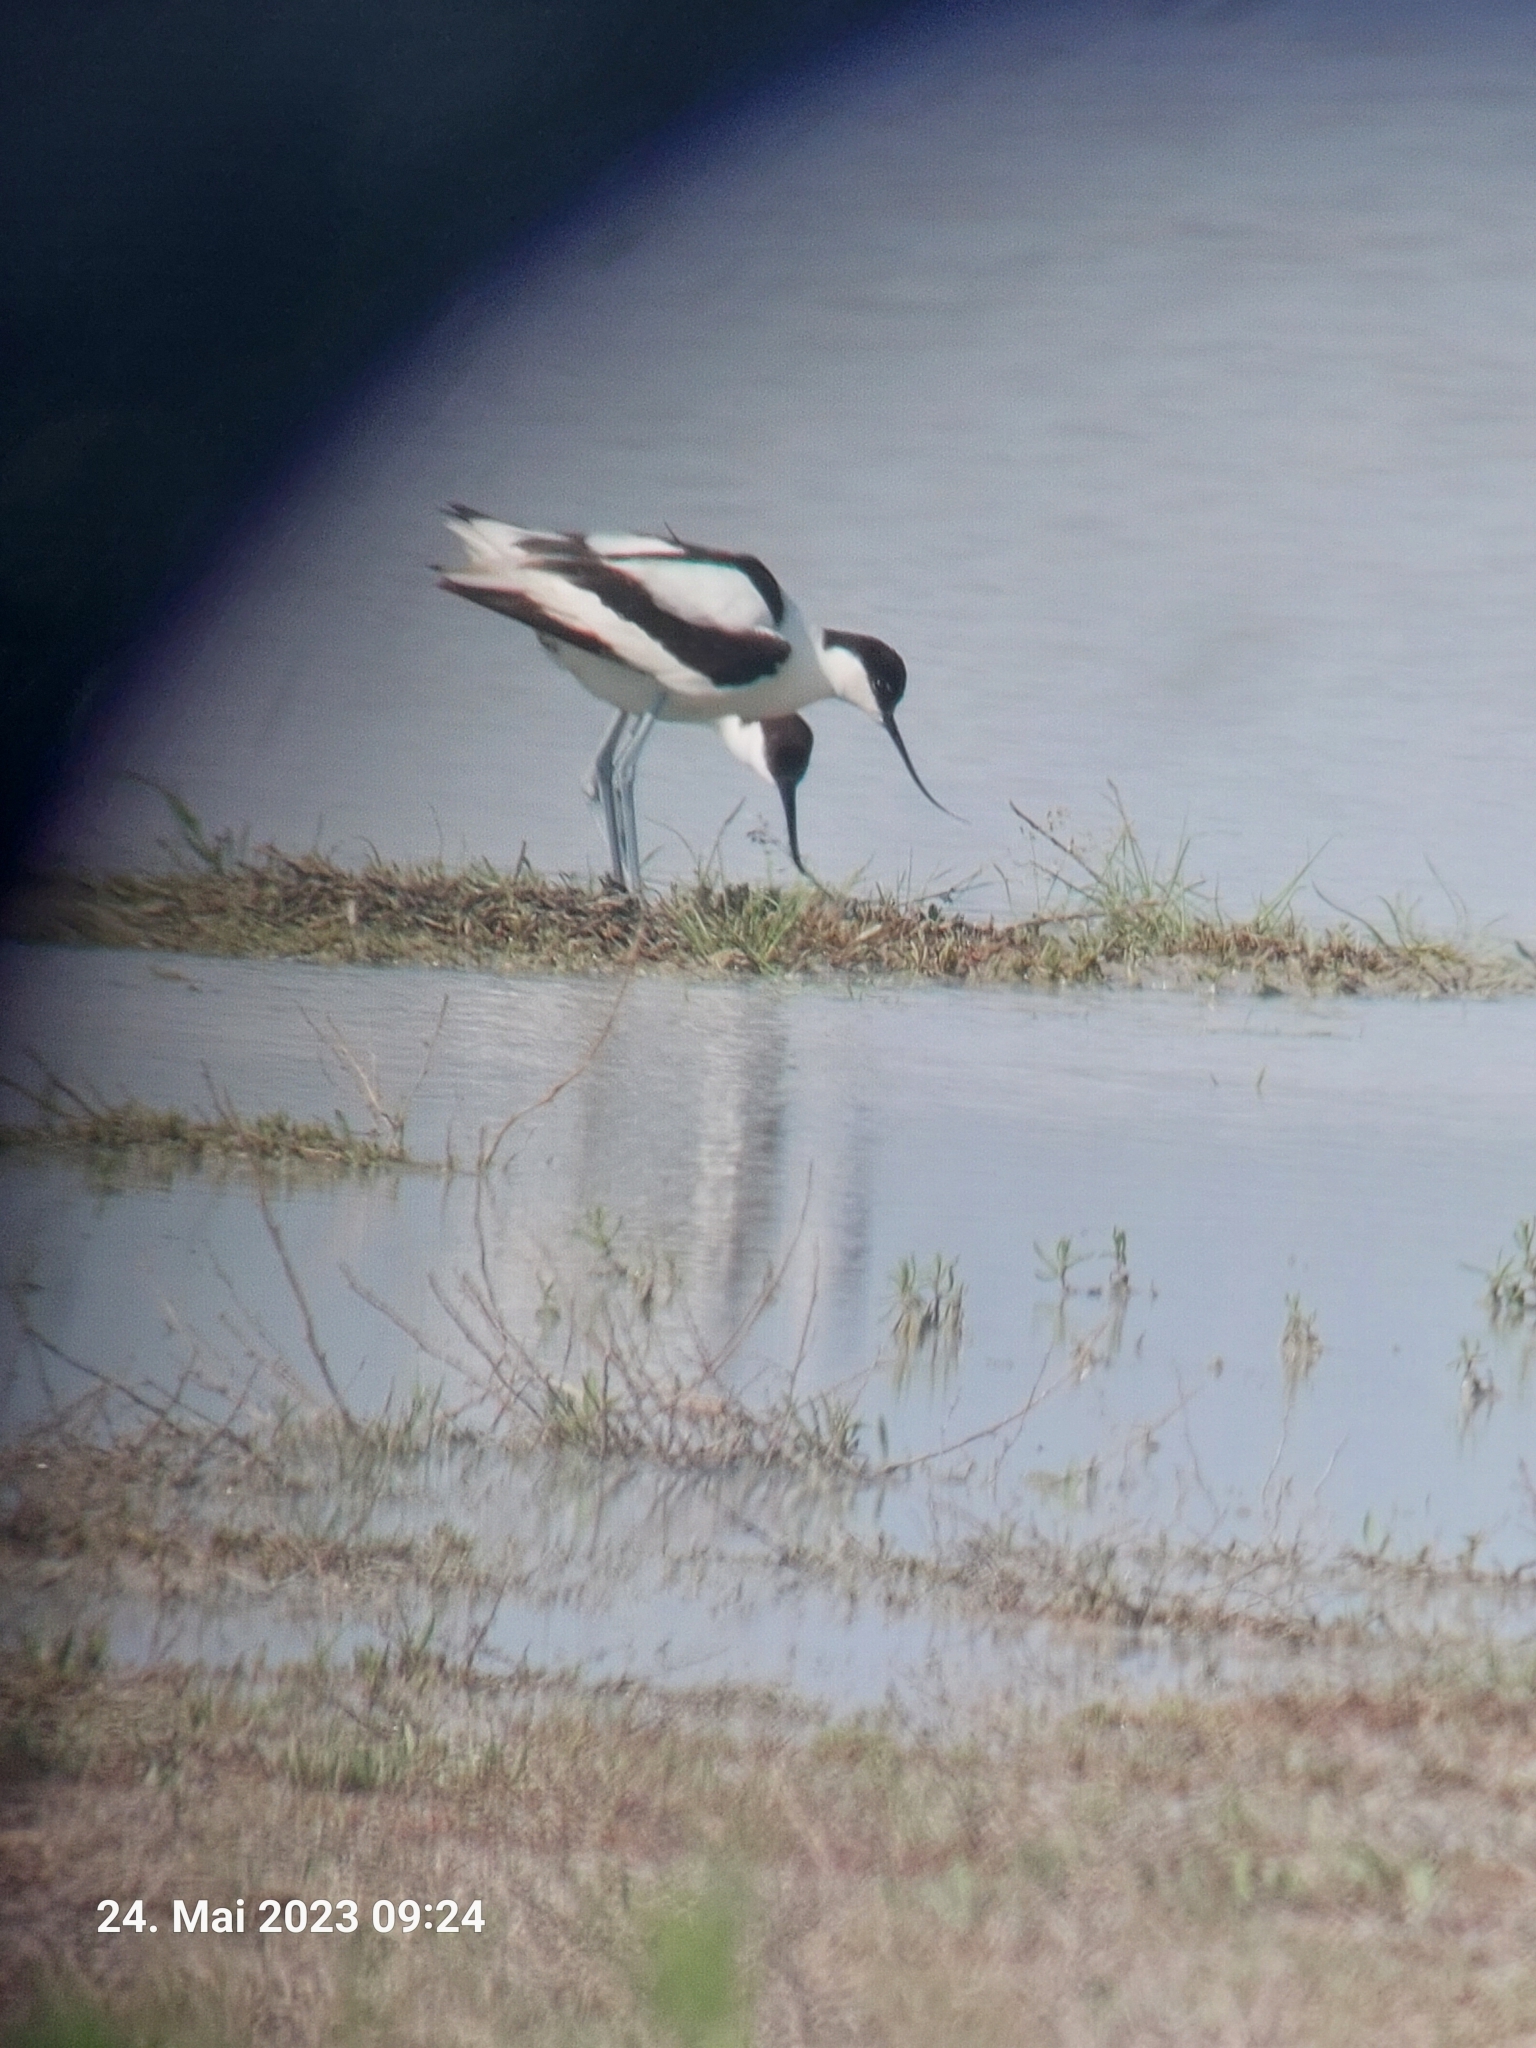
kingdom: Animalia
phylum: Chordata
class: Aves
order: Charadriiformes
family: Recurvirostridae
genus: Recurvirostra
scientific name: Recurvirostra avosetta
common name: Pied avocet
